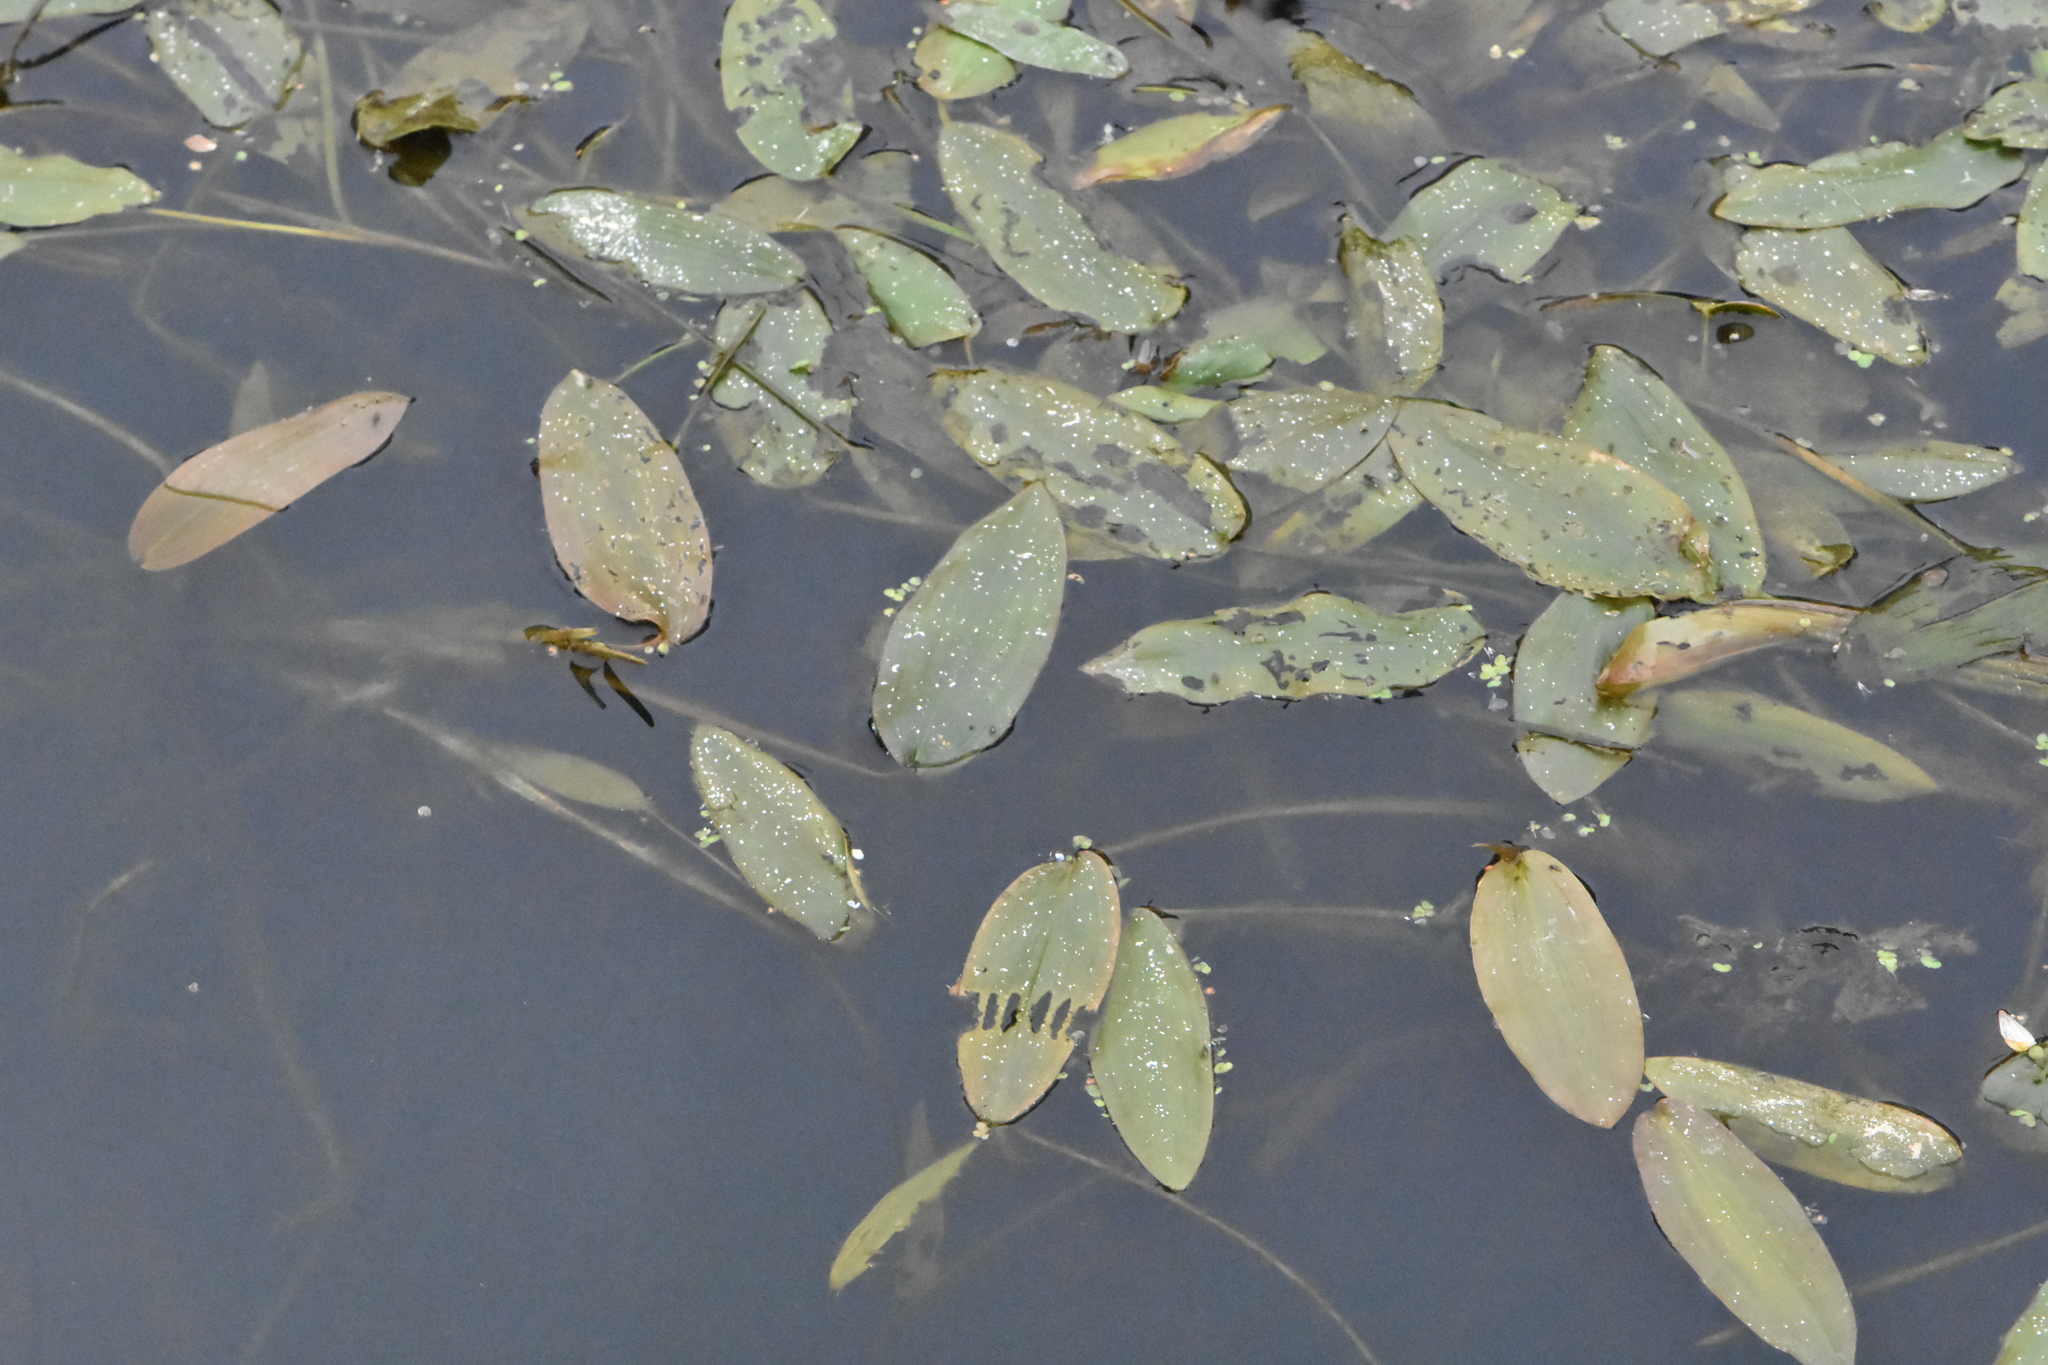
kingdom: Plantae
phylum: Tracheophyta
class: Liliopsida
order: Alismatales
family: Potamogetonaceae
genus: Potamogeton
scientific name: Potamogeton natans
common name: Broad-leaved pondweed
